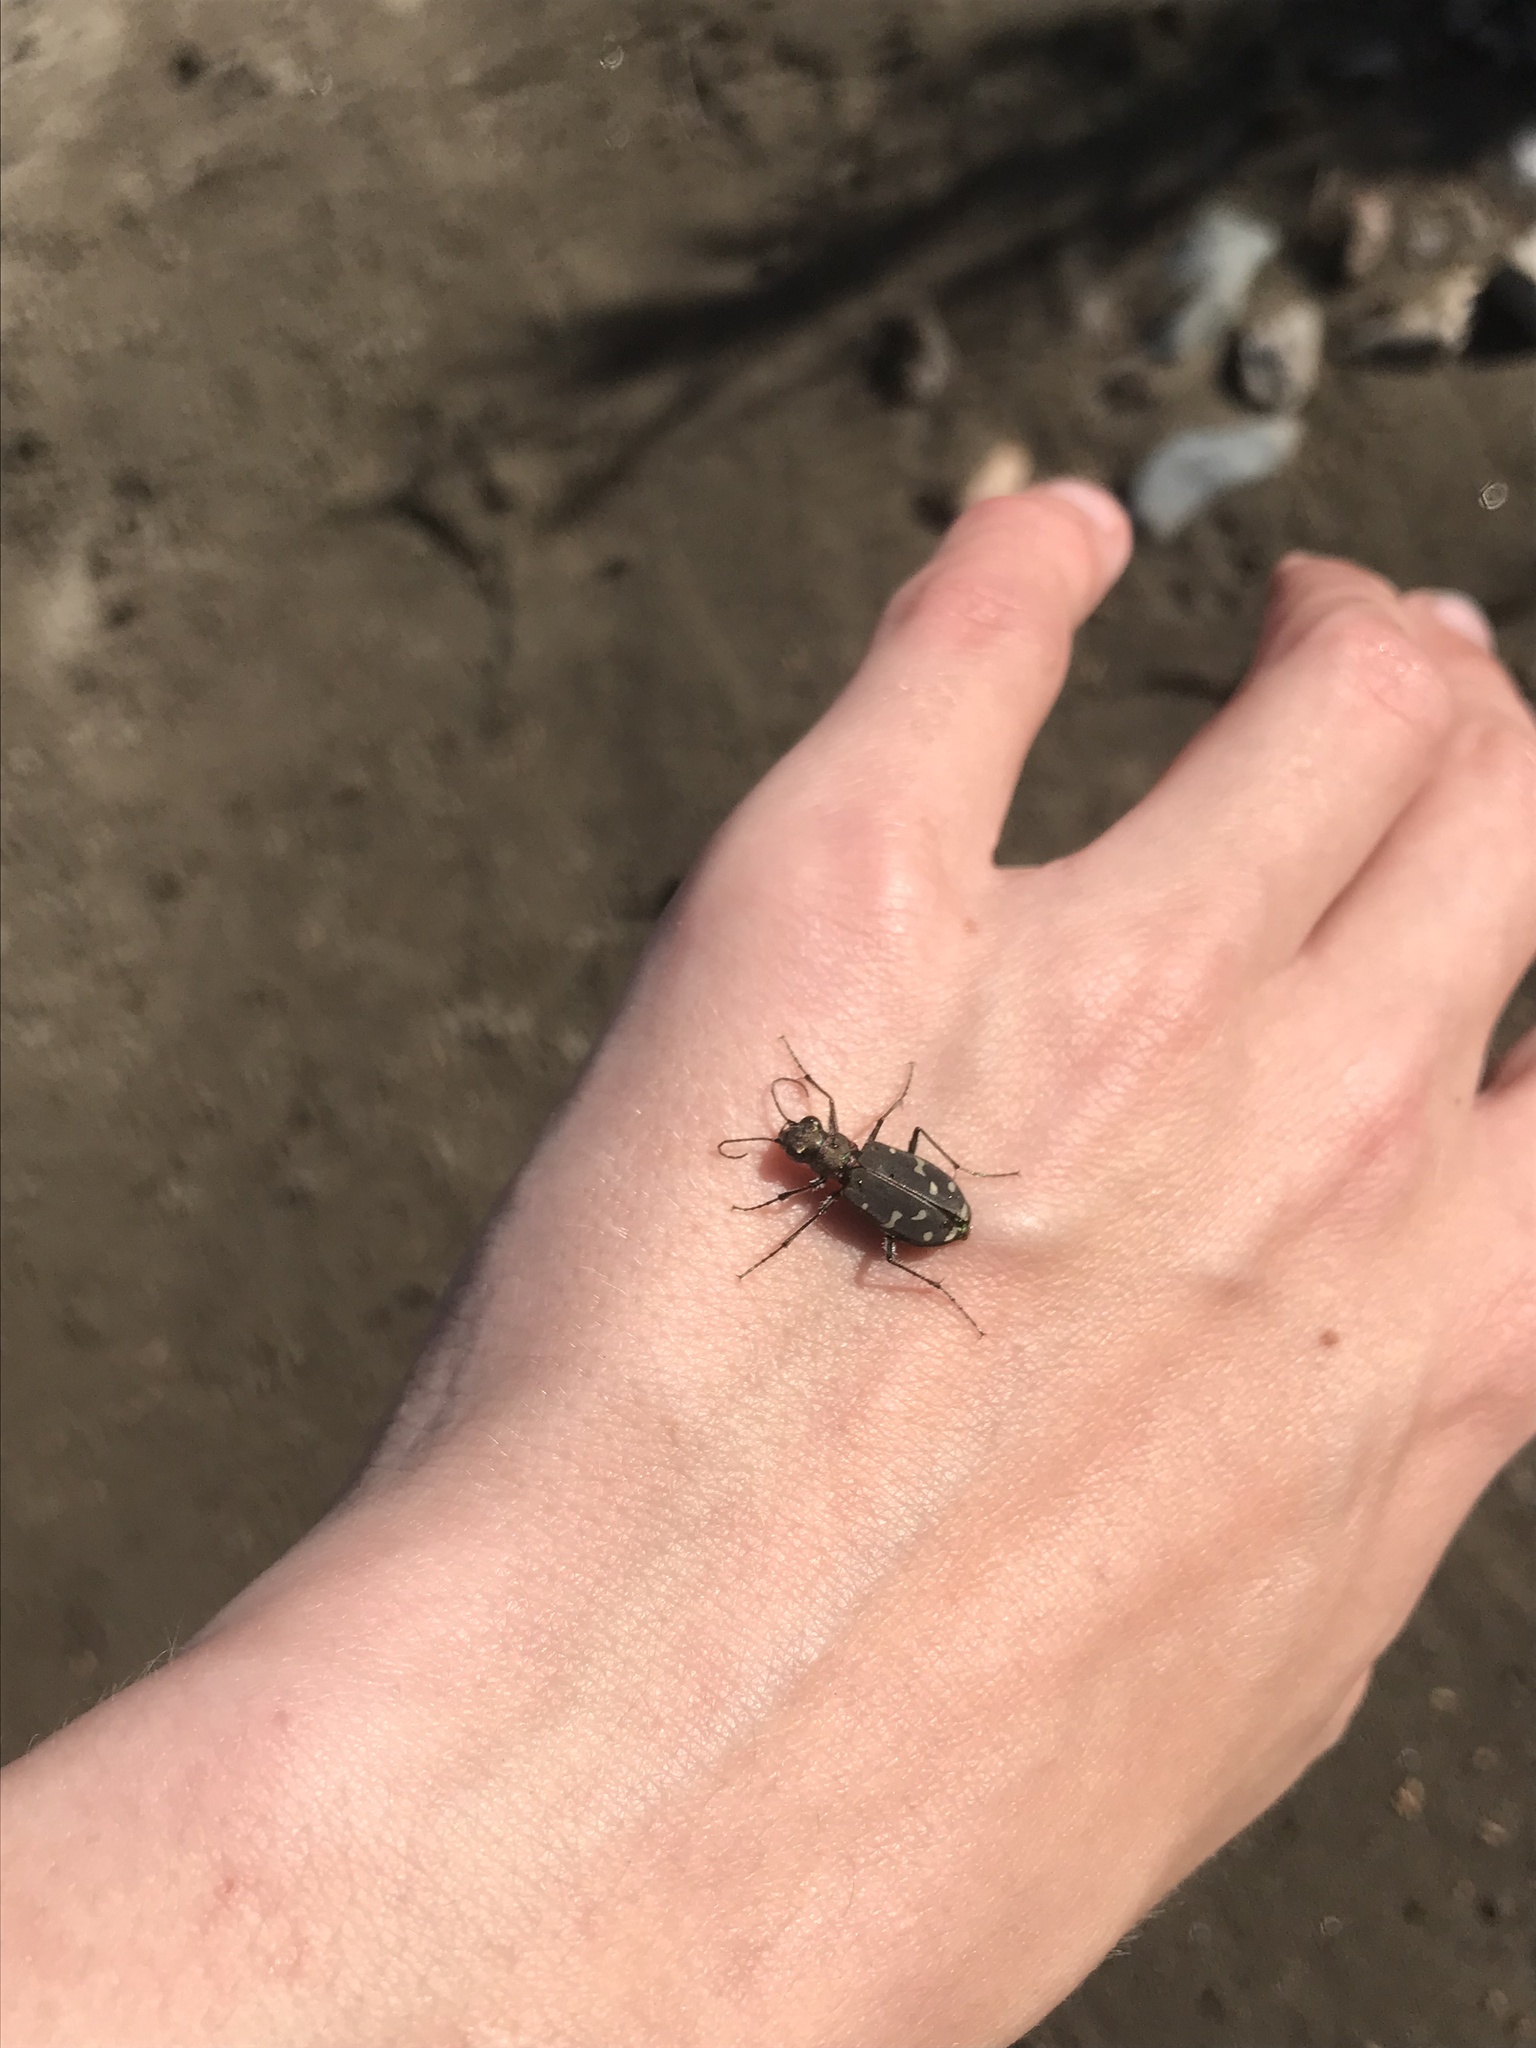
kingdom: Animalia
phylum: Arthropoda
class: Insecta
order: Coleoptera
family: Carabidae
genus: Cicindela
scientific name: Cicindela oregona
